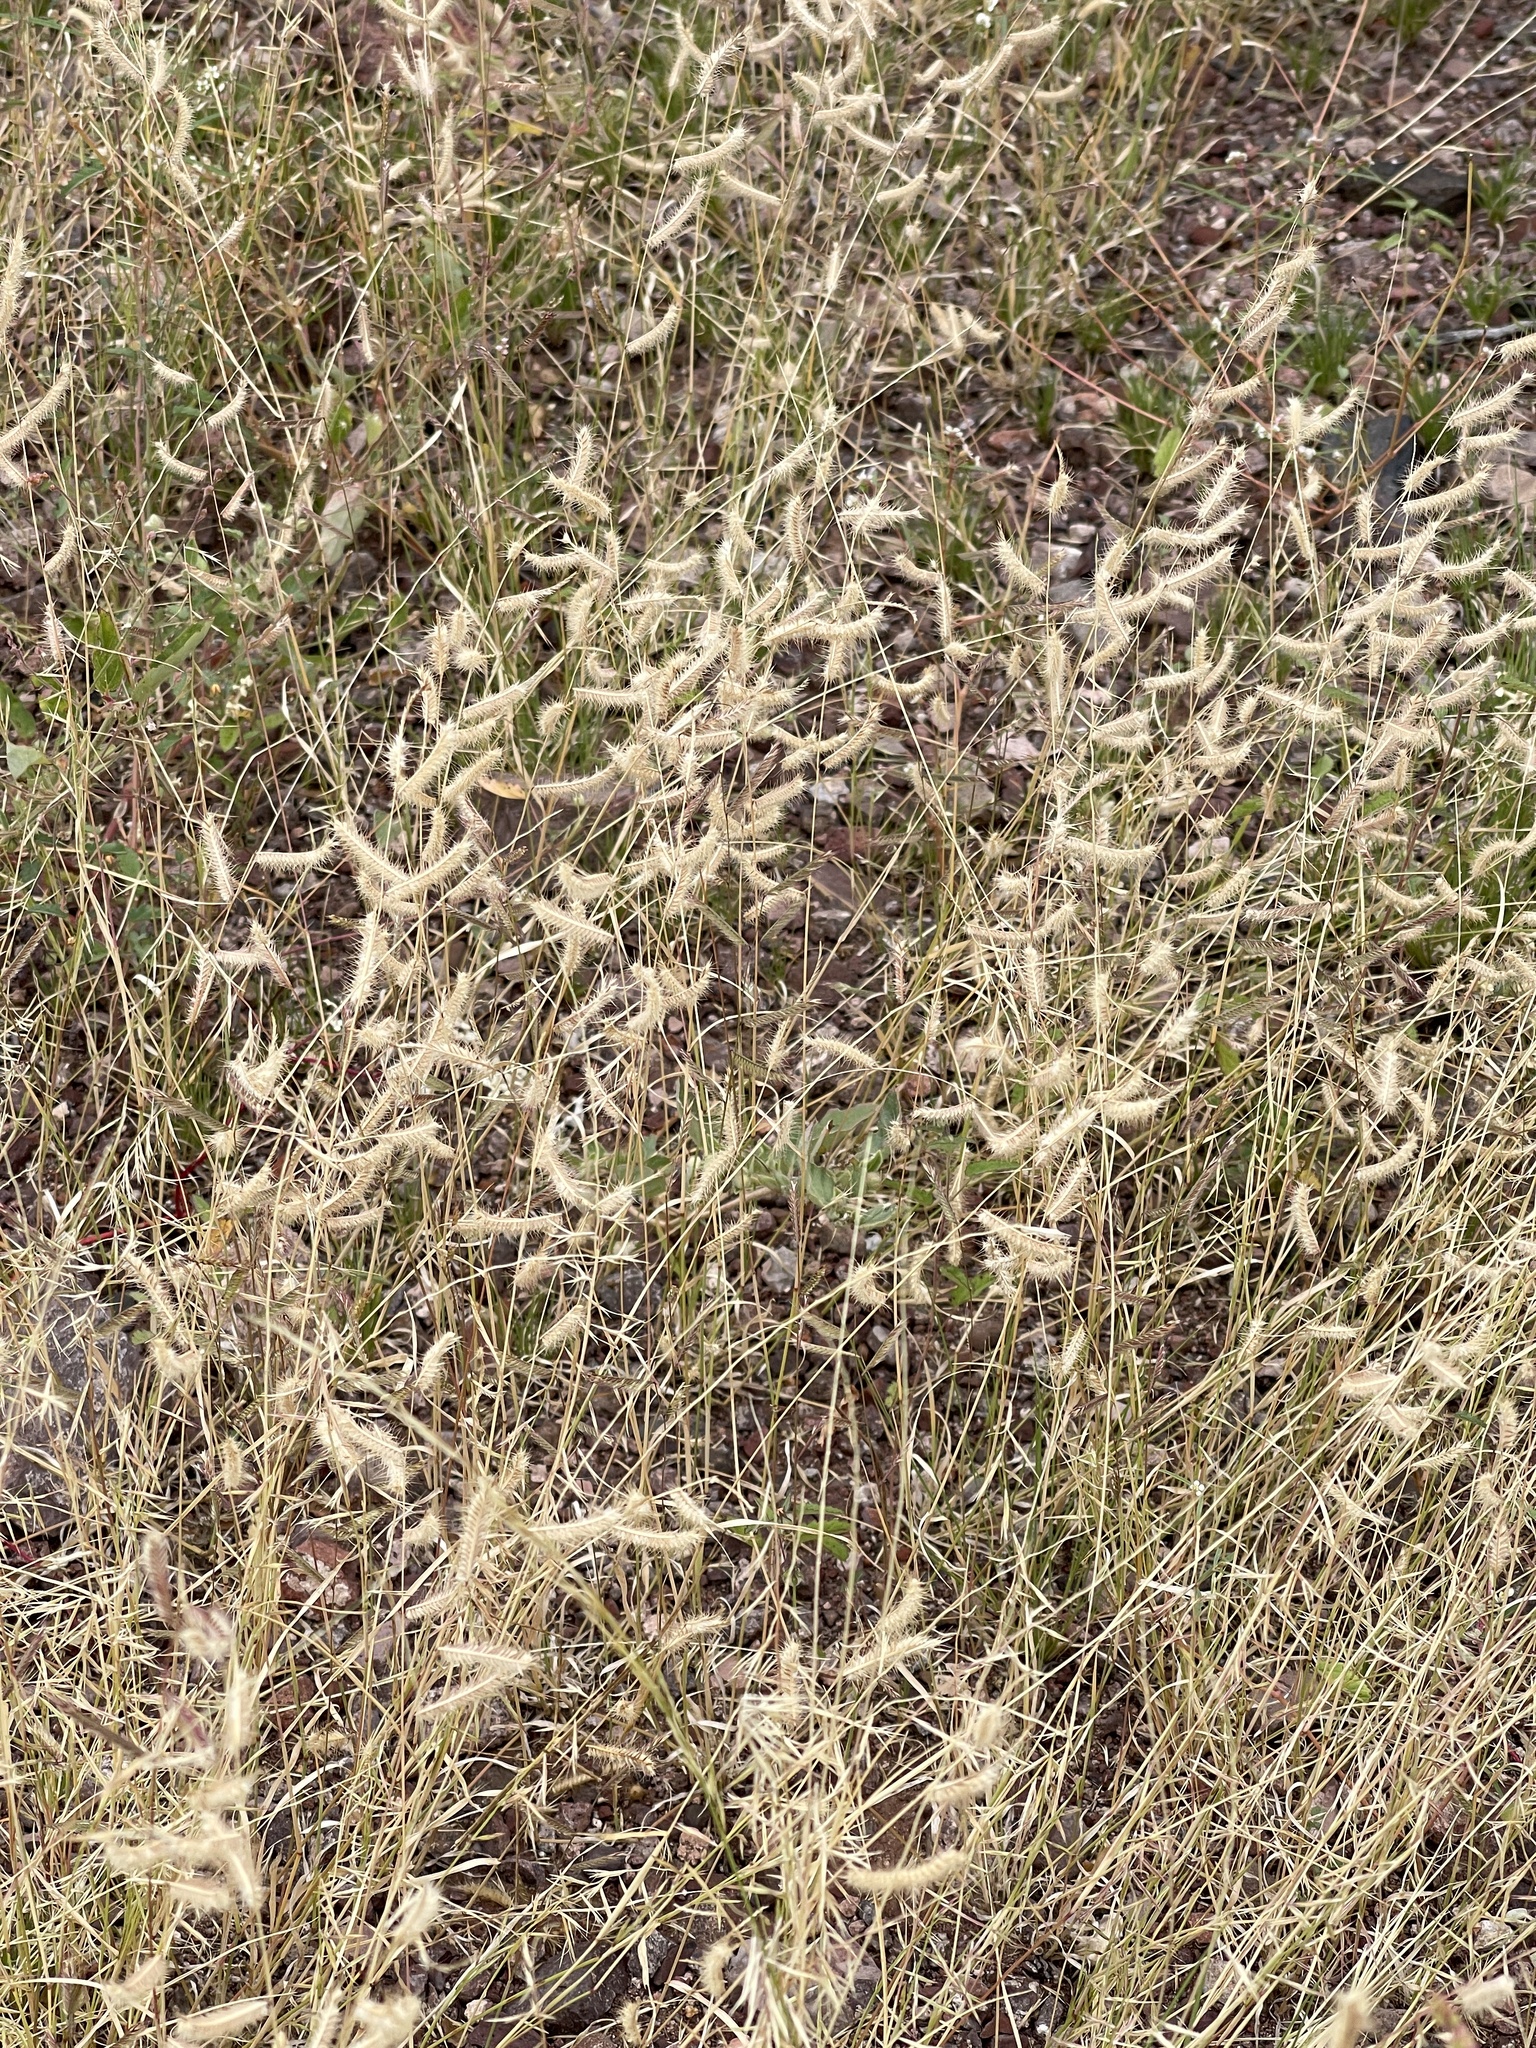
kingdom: Plantae
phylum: Tracheophyta
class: Liliopsida
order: Poales
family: Poaceae
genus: Bouteloua
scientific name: Bouteloua barbata
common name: Six-weeks grama
